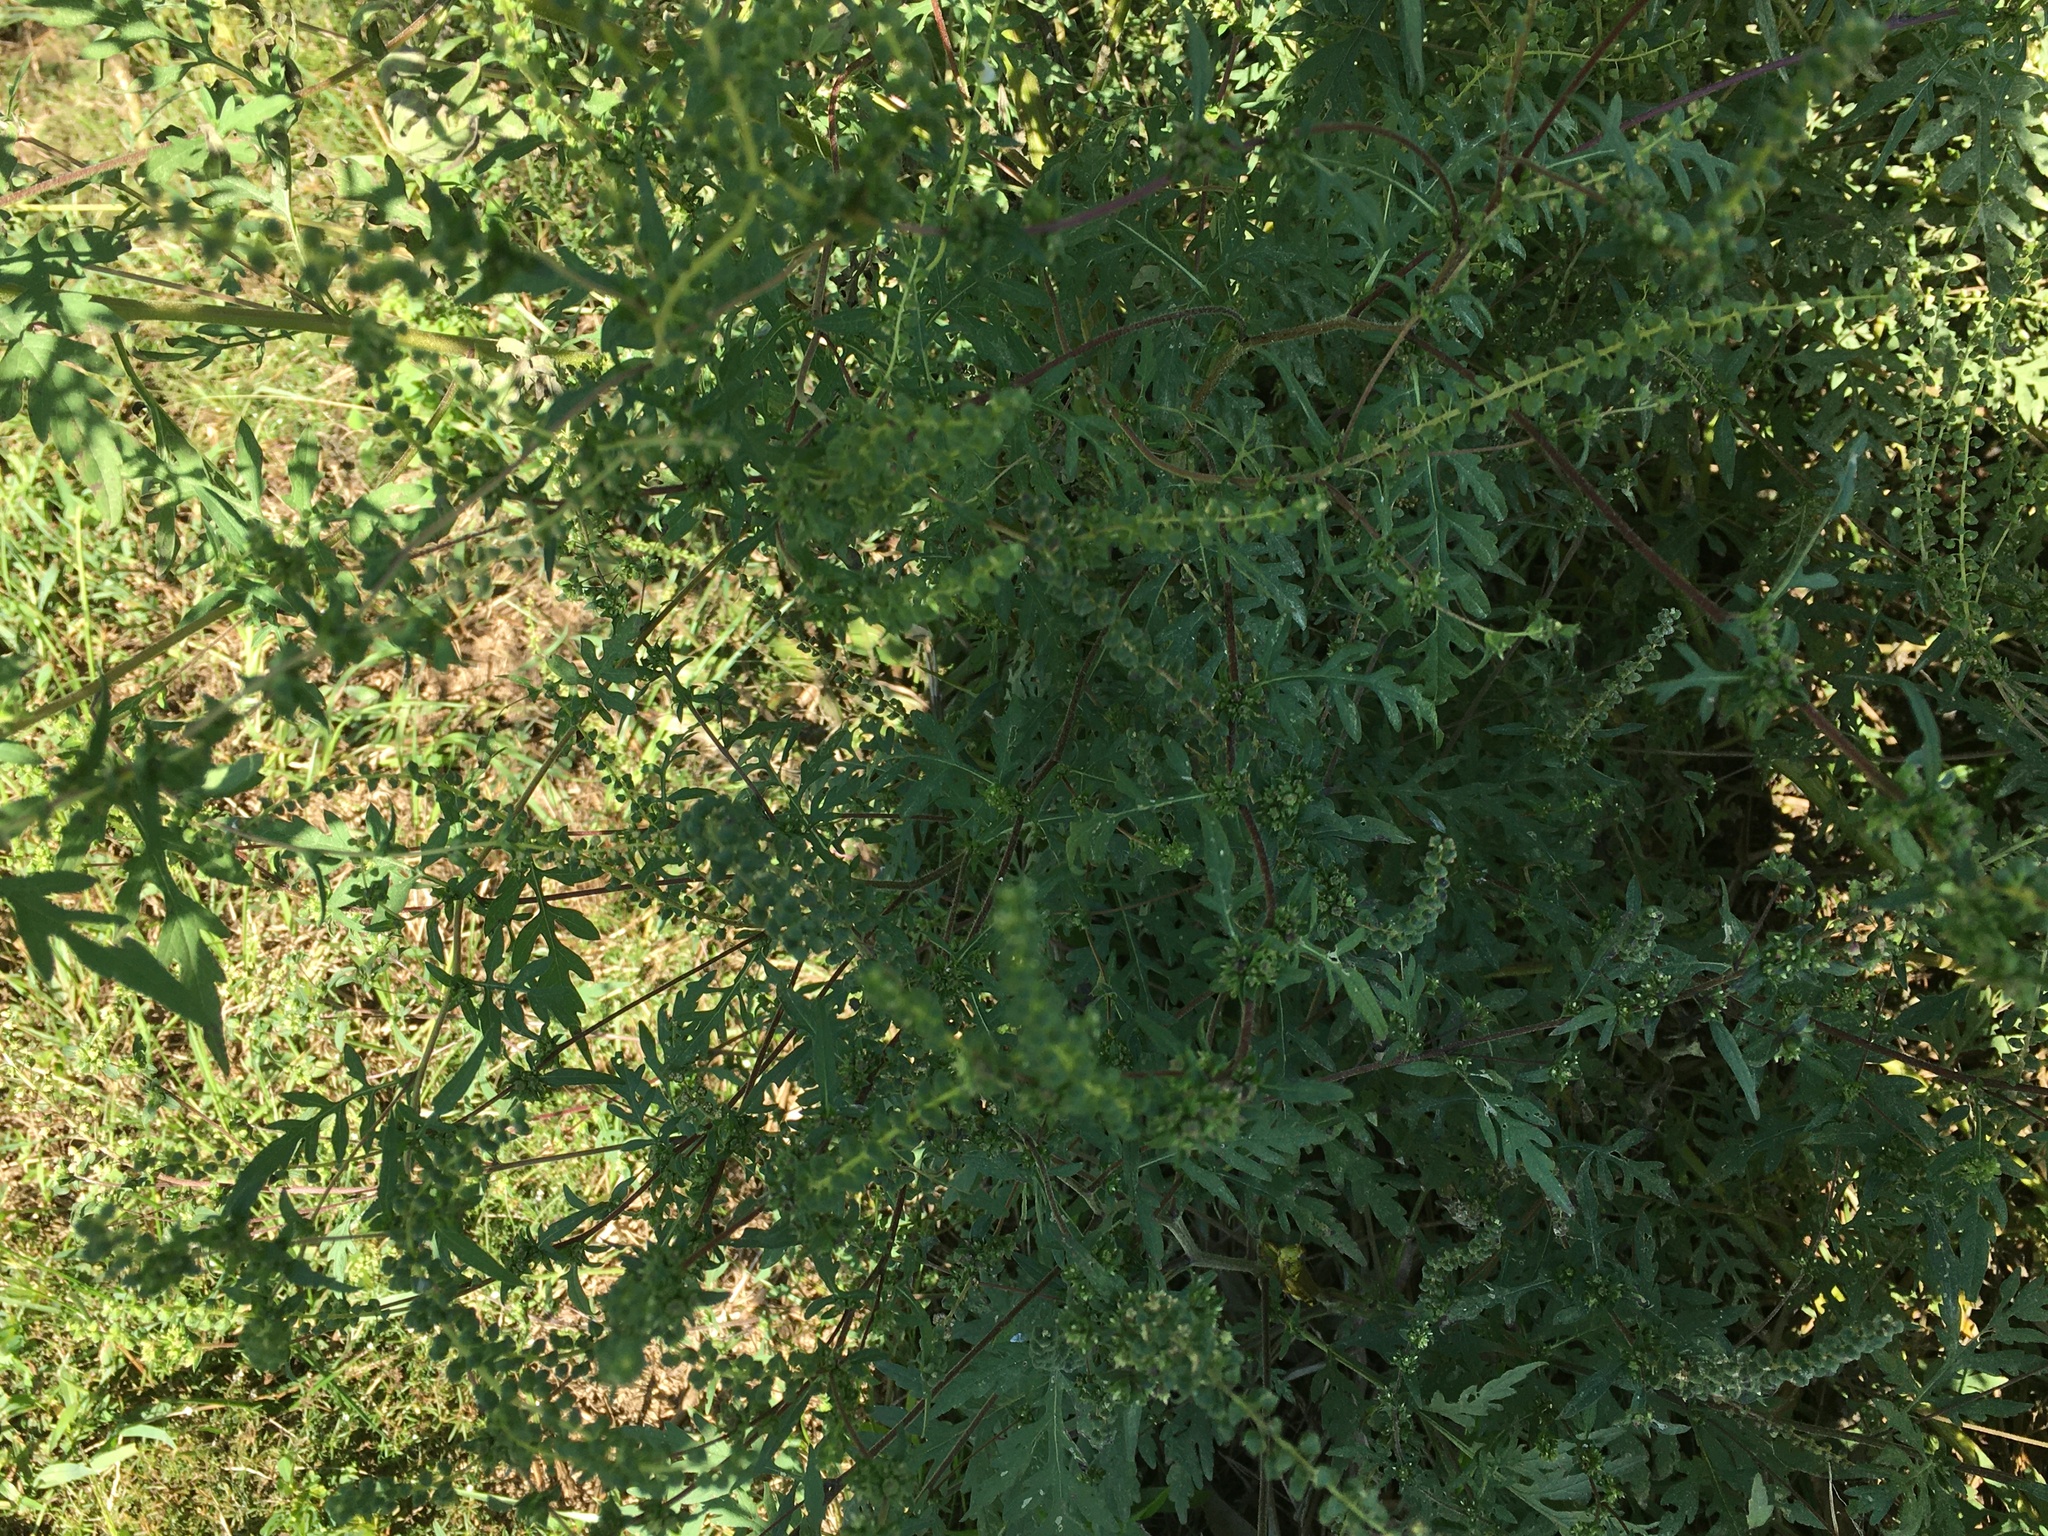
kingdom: Plantae
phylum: Tracheophyta
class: Magnoliopsida
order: Asterales
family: Asteraceae
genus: Ambrosia
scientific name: Ambrosia artemisiifolia
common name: Annual ragweed
